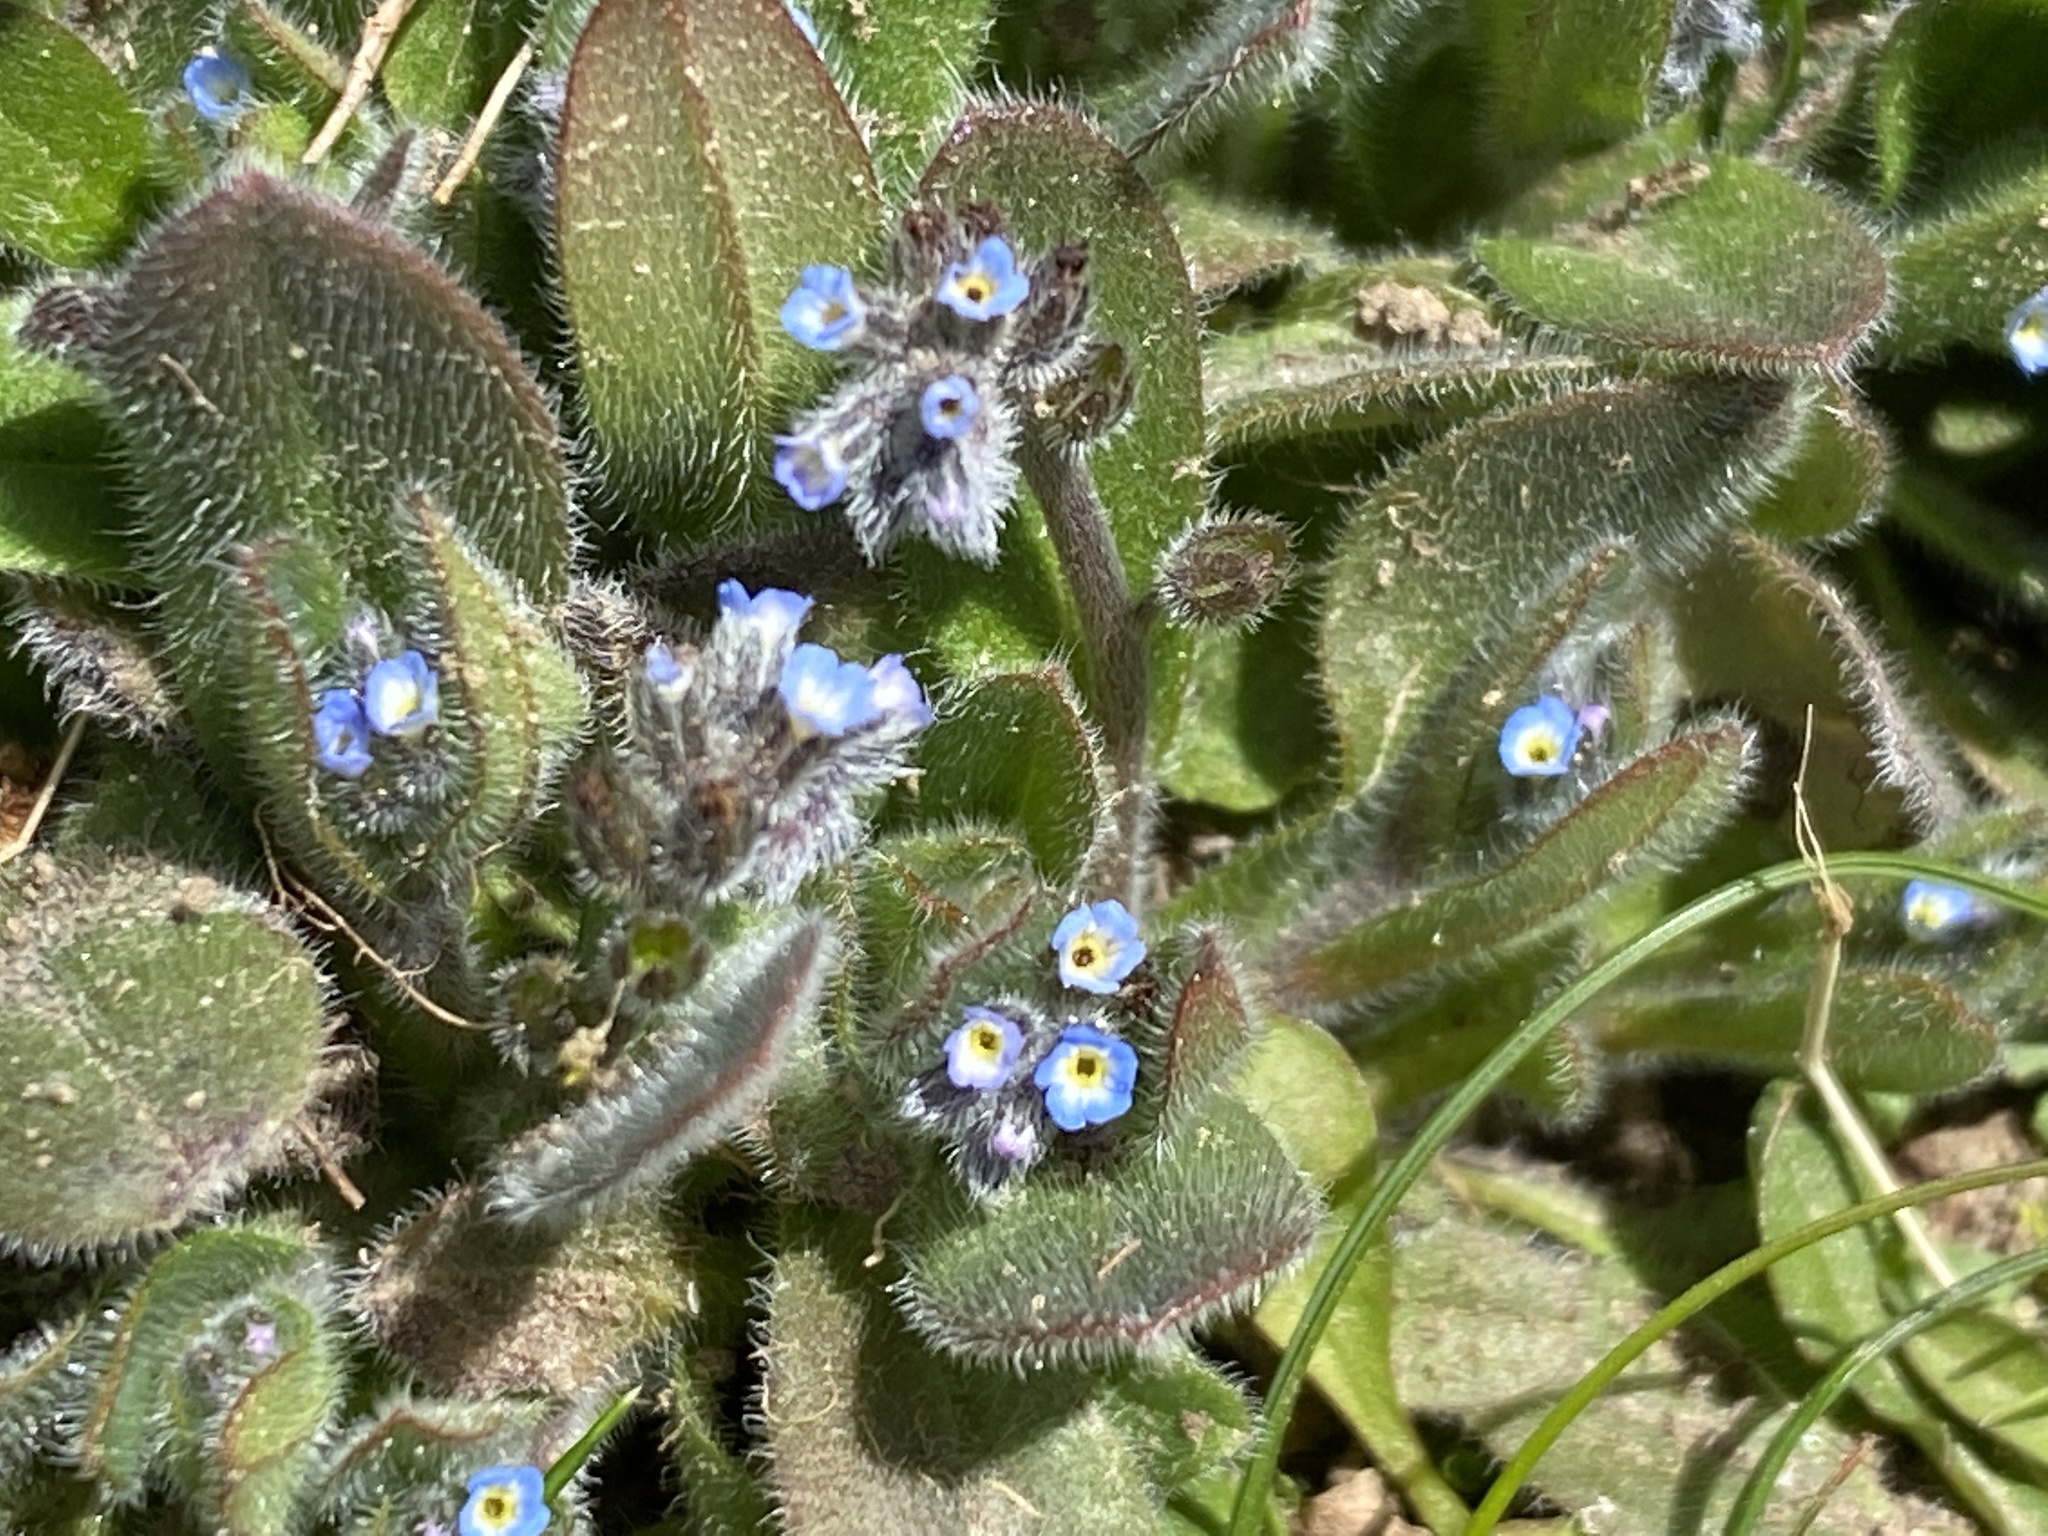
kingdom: Plantae
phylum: Tracheophyta
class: Magnoliopsida
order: Boraginales
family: Boraginaceae
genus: Myosotis
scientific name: Myosotis ramosissima
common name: Early forget-me-not
